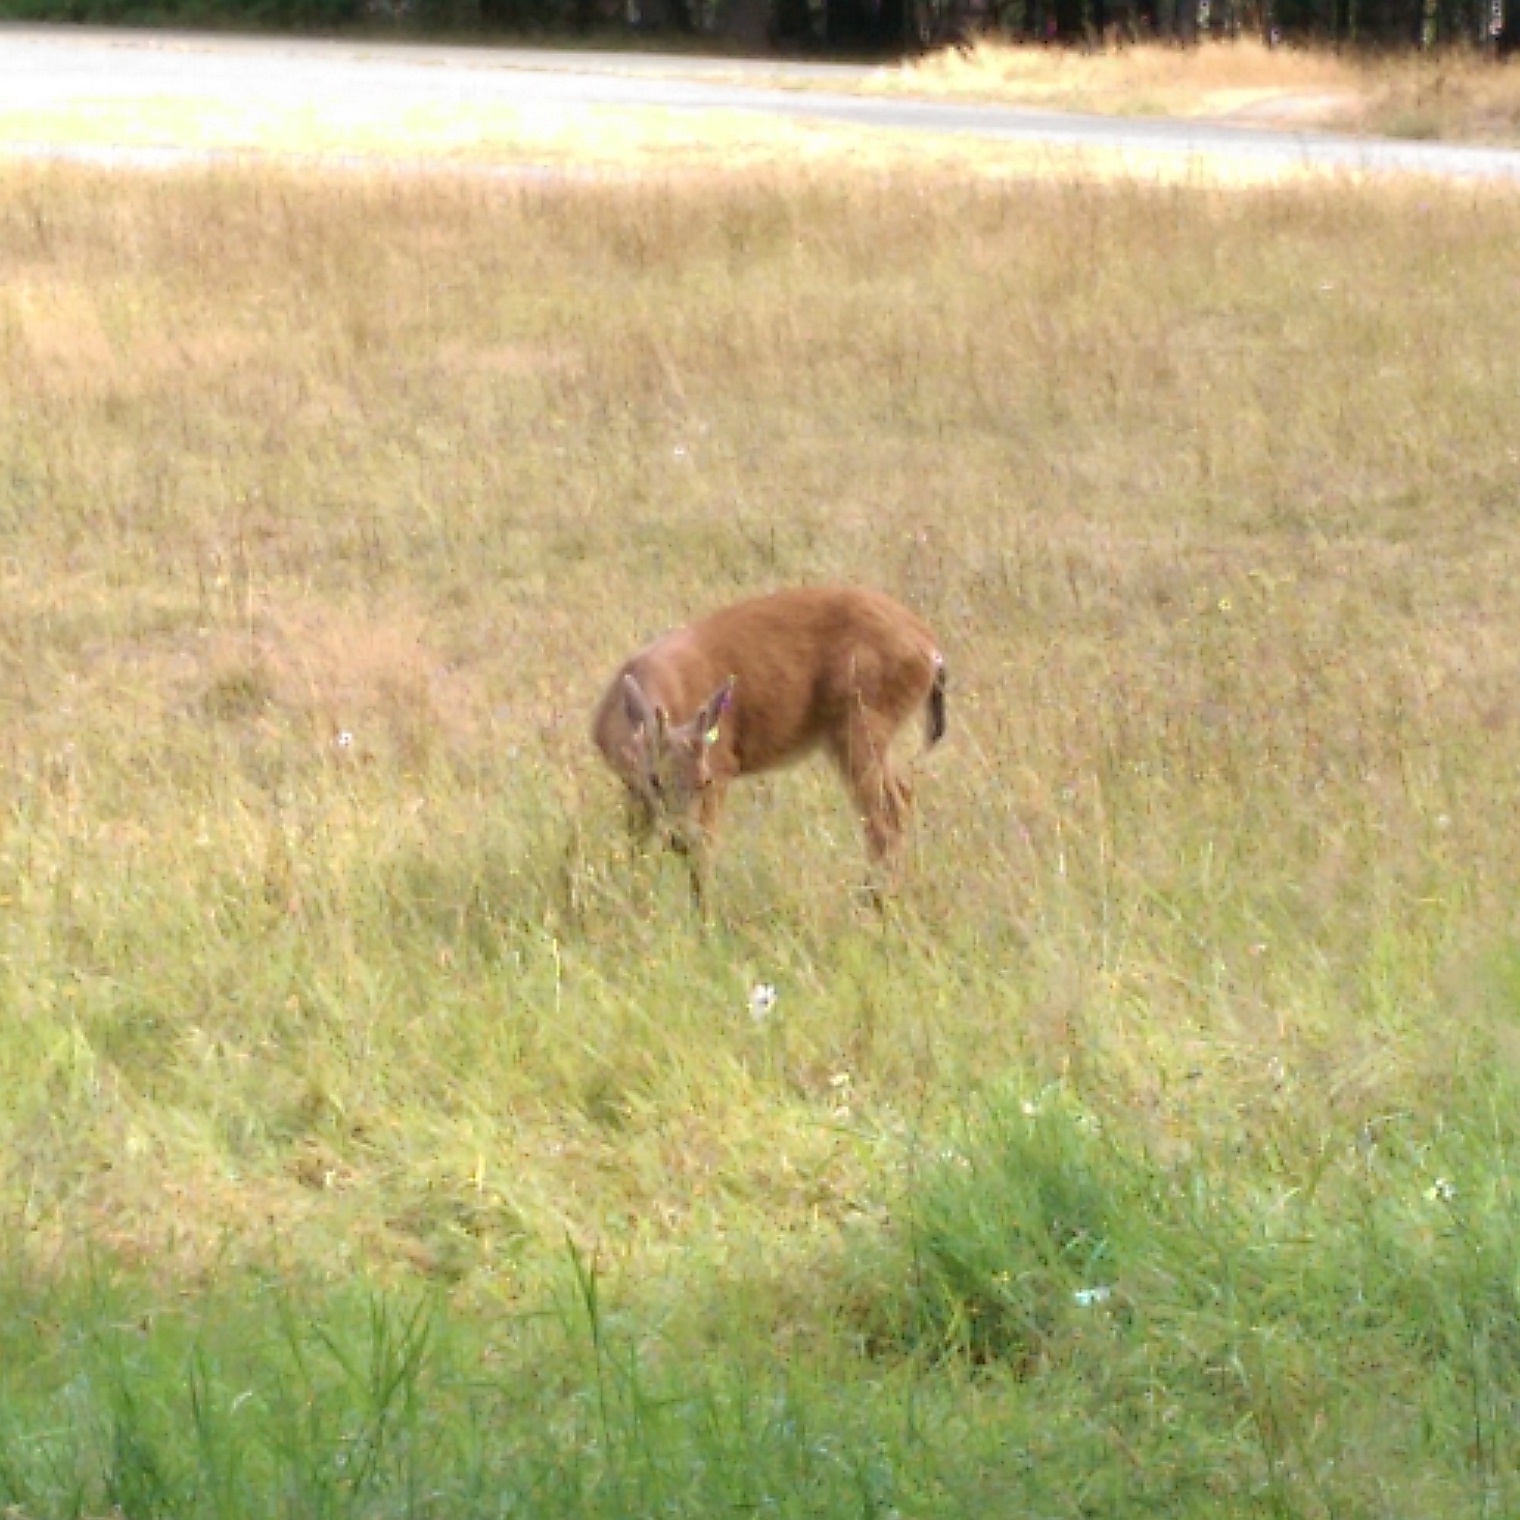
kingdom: Animalia
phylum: Chordata
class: Mammalia
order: Artiodactyla
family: Cervidae
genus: Odocoileus
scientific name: Odocoileus hemionus
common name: Mule deer
